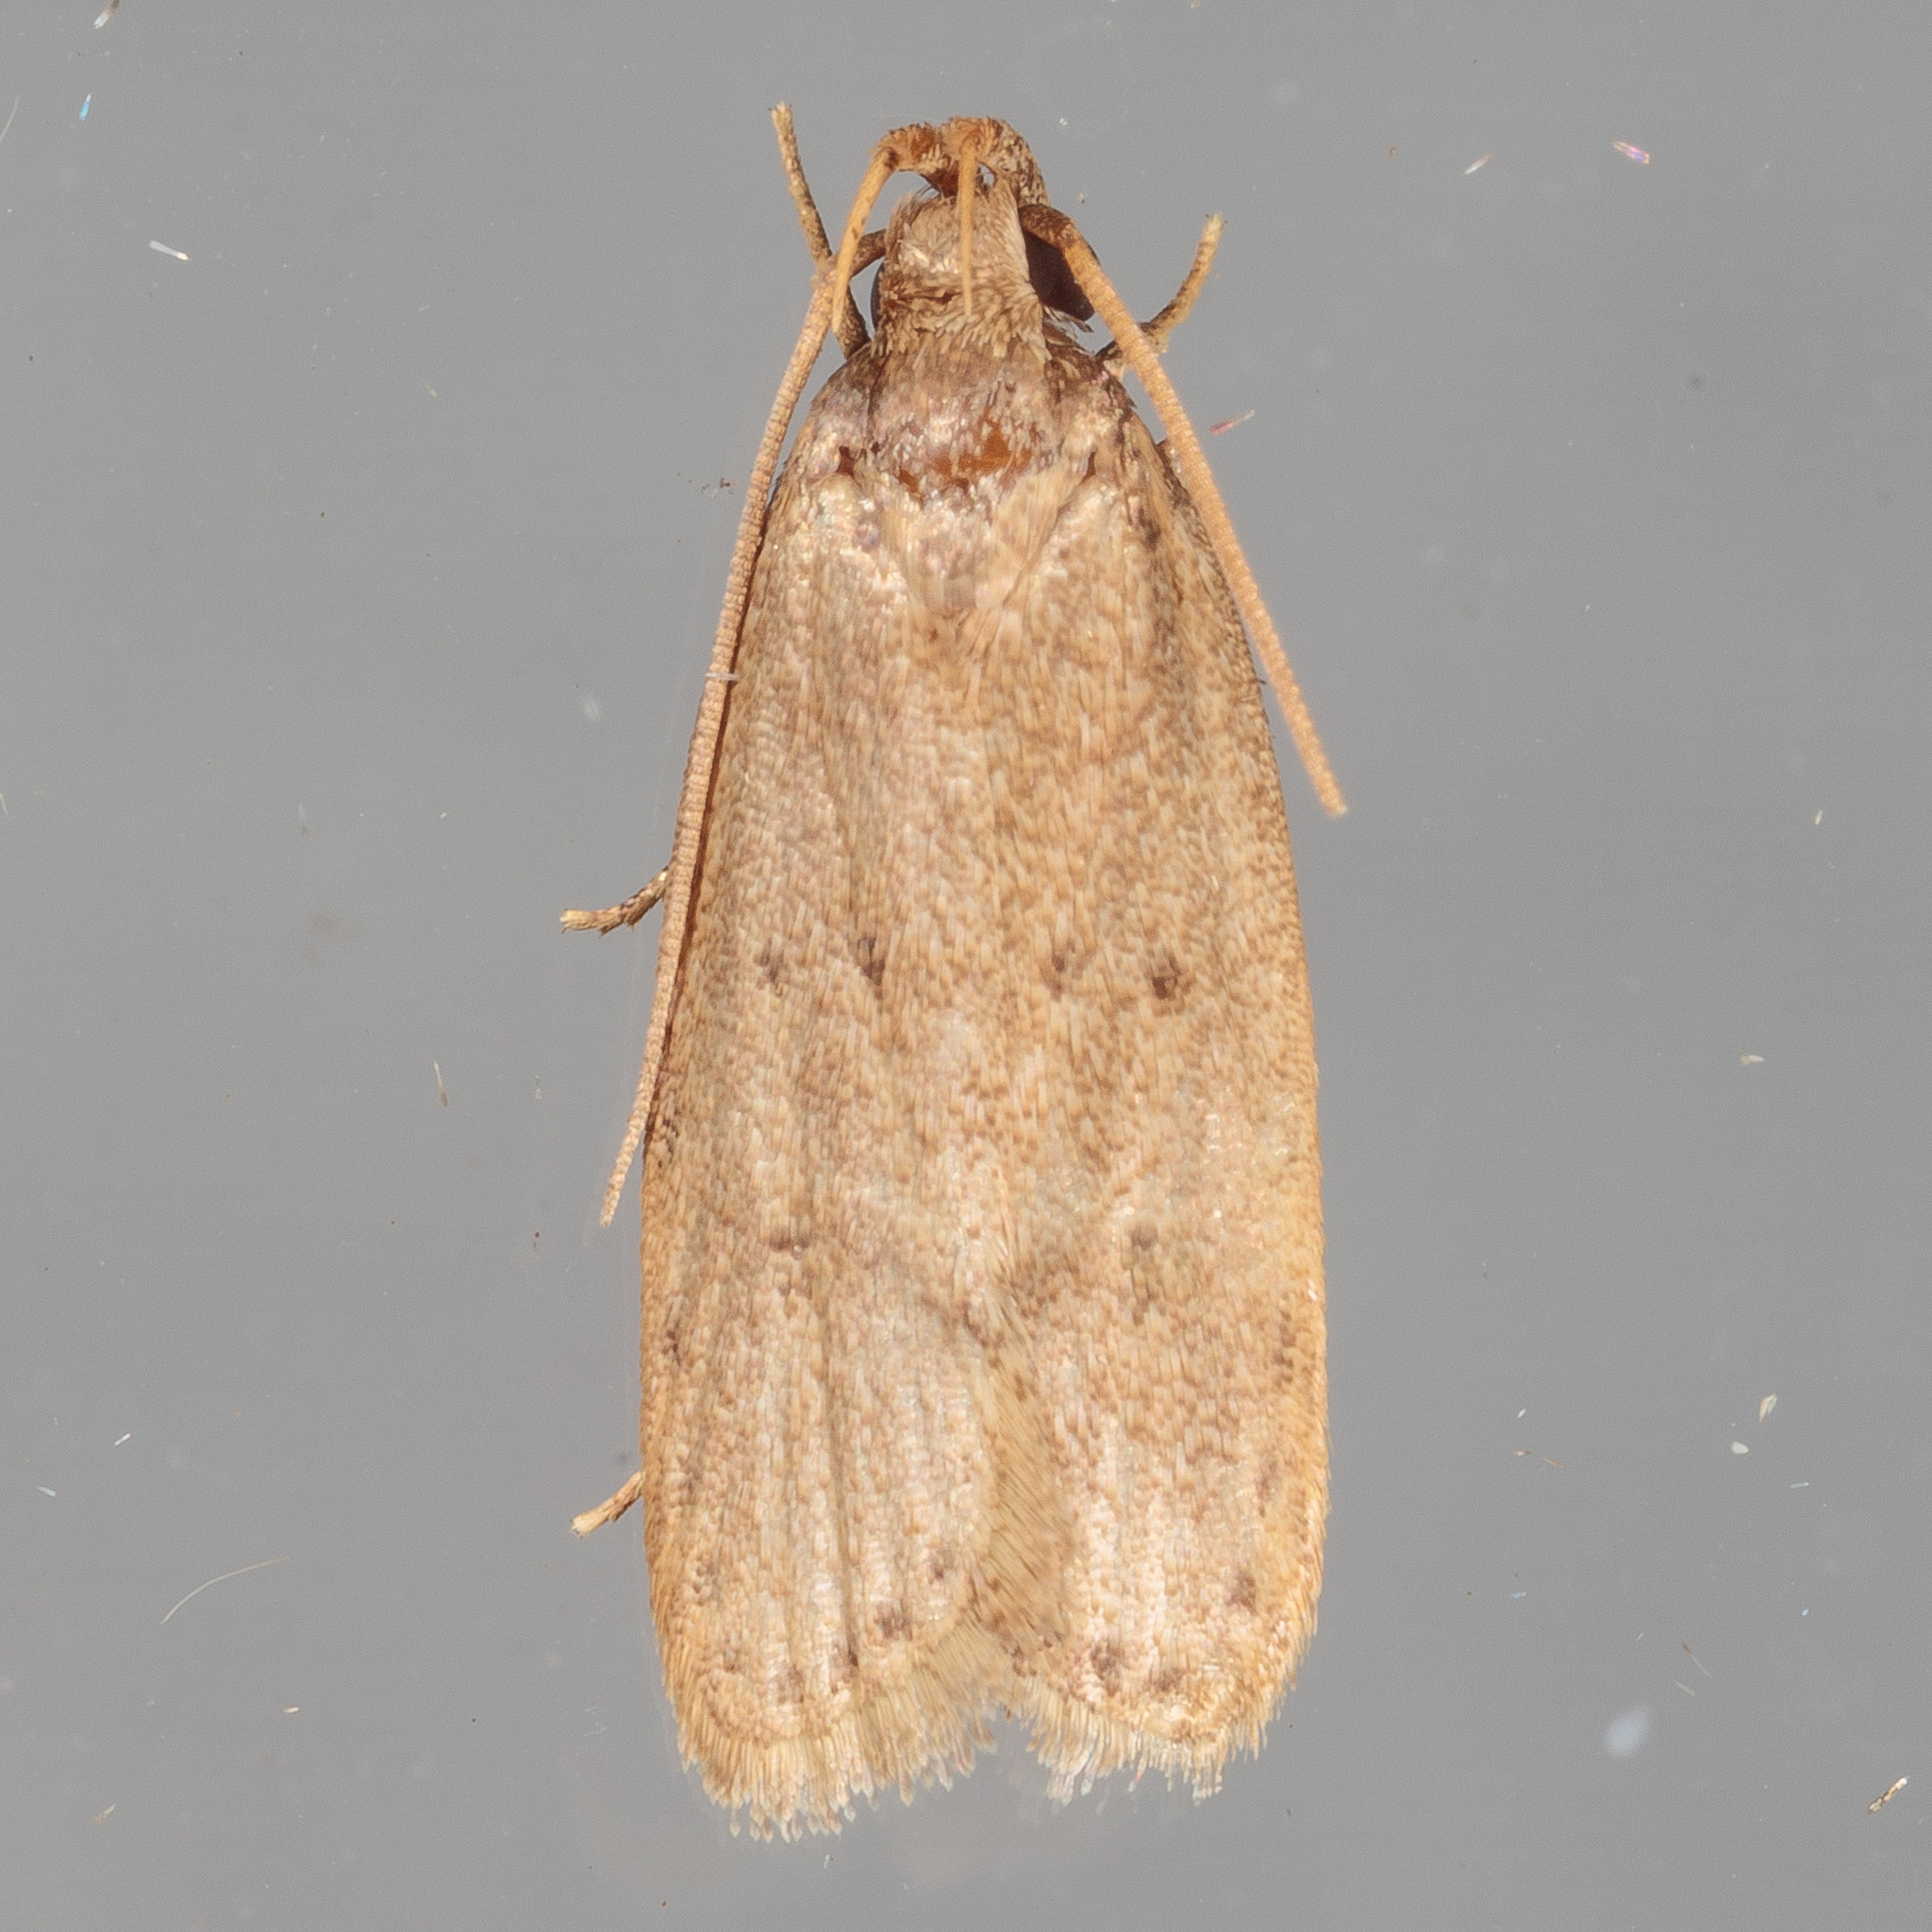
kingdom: Animalia
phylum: Arthropoda
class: Insecta
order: Lepidoptera
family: Autostichidae
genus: Autosticha
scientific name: Autosticha kyotensis
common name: Kyoto moth
